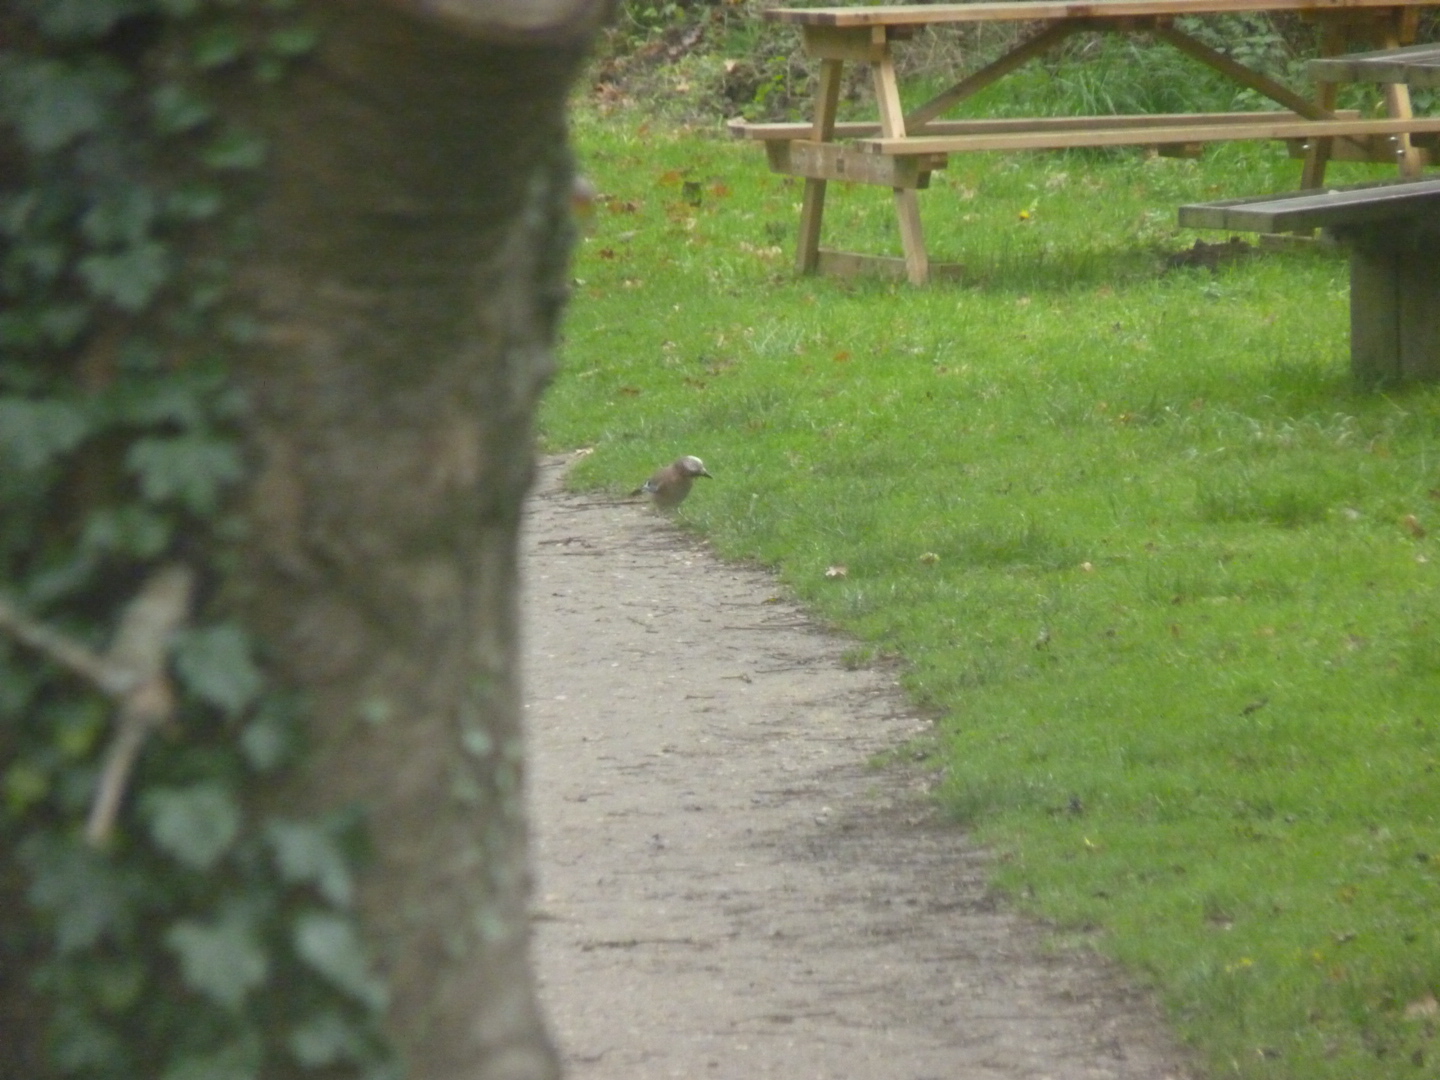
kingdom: Animalia
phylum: Chordata
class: Aves
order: Passeriformes
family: Corvidae
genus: Garrulus
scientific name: Garrulus glandarius
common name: Eurasian jay
